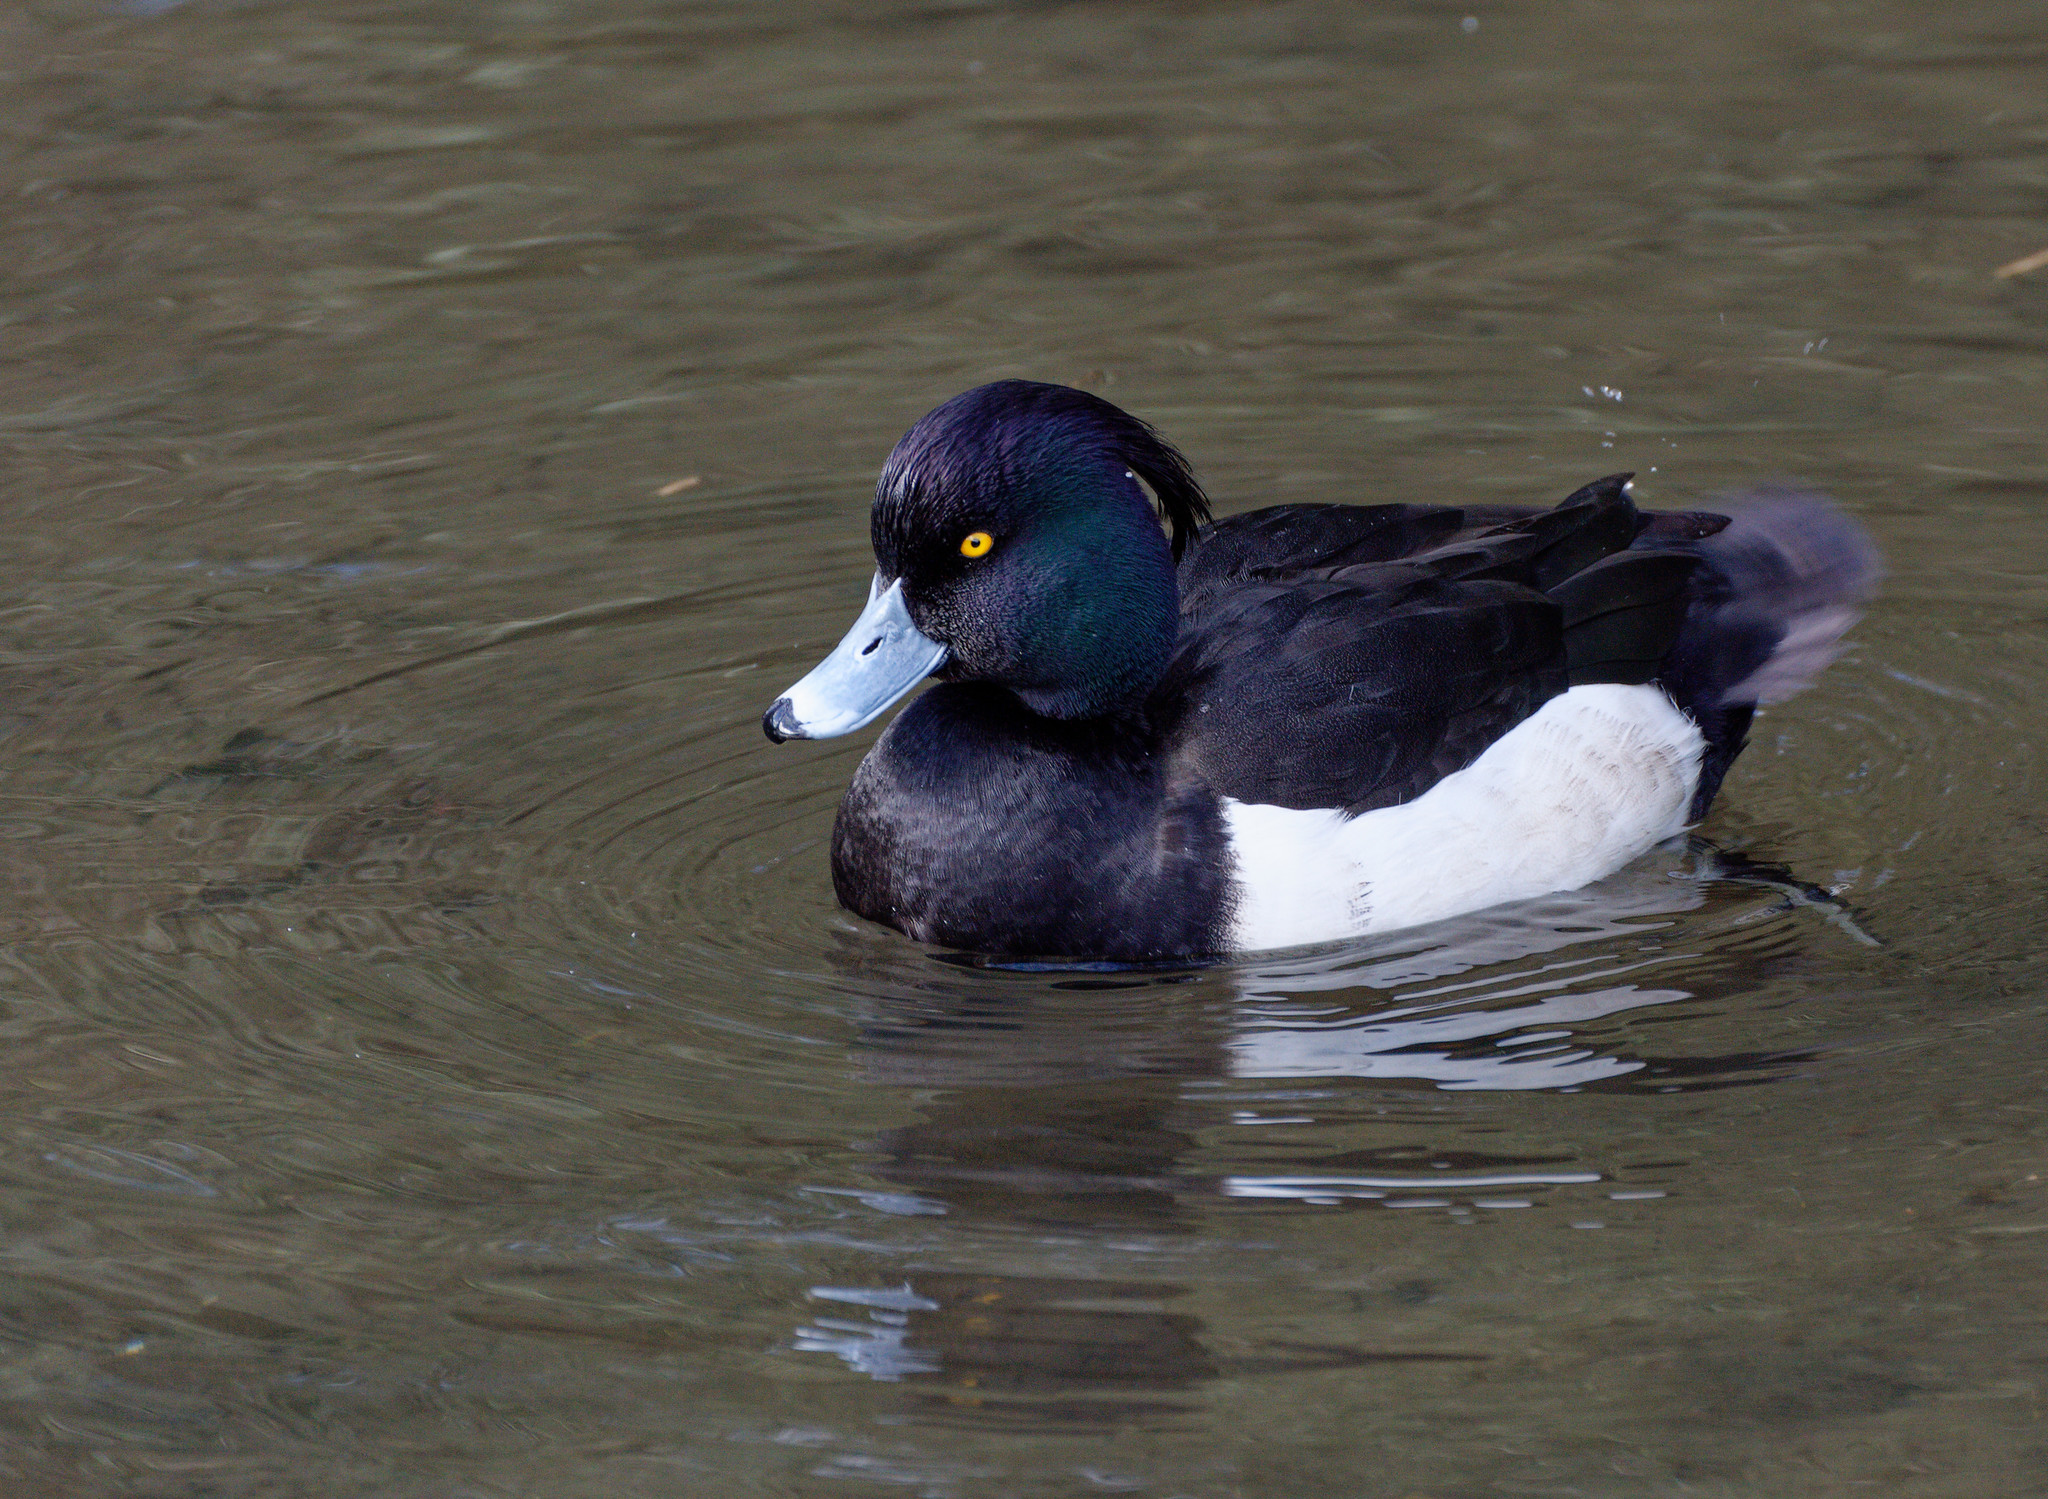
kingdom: Animalia
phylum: Chordata
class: Aves
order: Anseriformes
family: Anatidae
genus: Aythya
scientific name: Aythya fuligula
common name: Tufted duck
